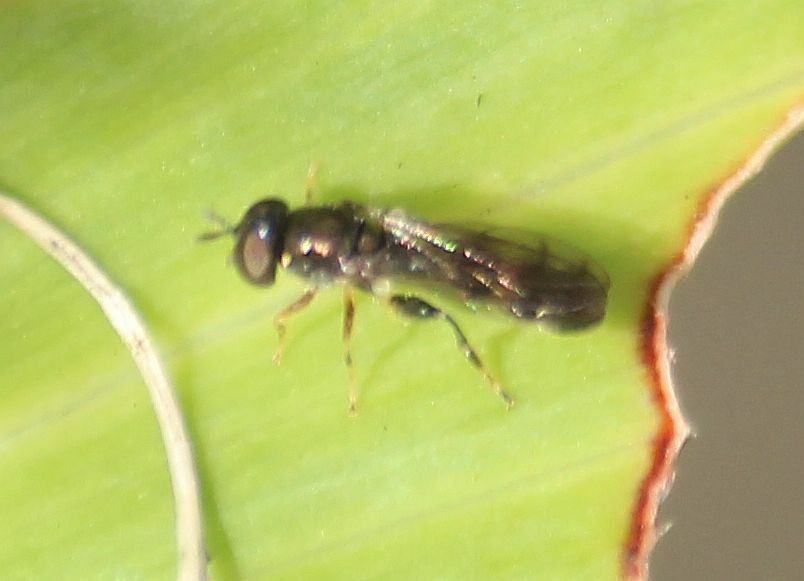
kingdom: Animalia
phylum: Arthropoda
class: Insecta
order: Diptera
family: Syrphidae
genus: Neoascia
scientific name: Neoascia
